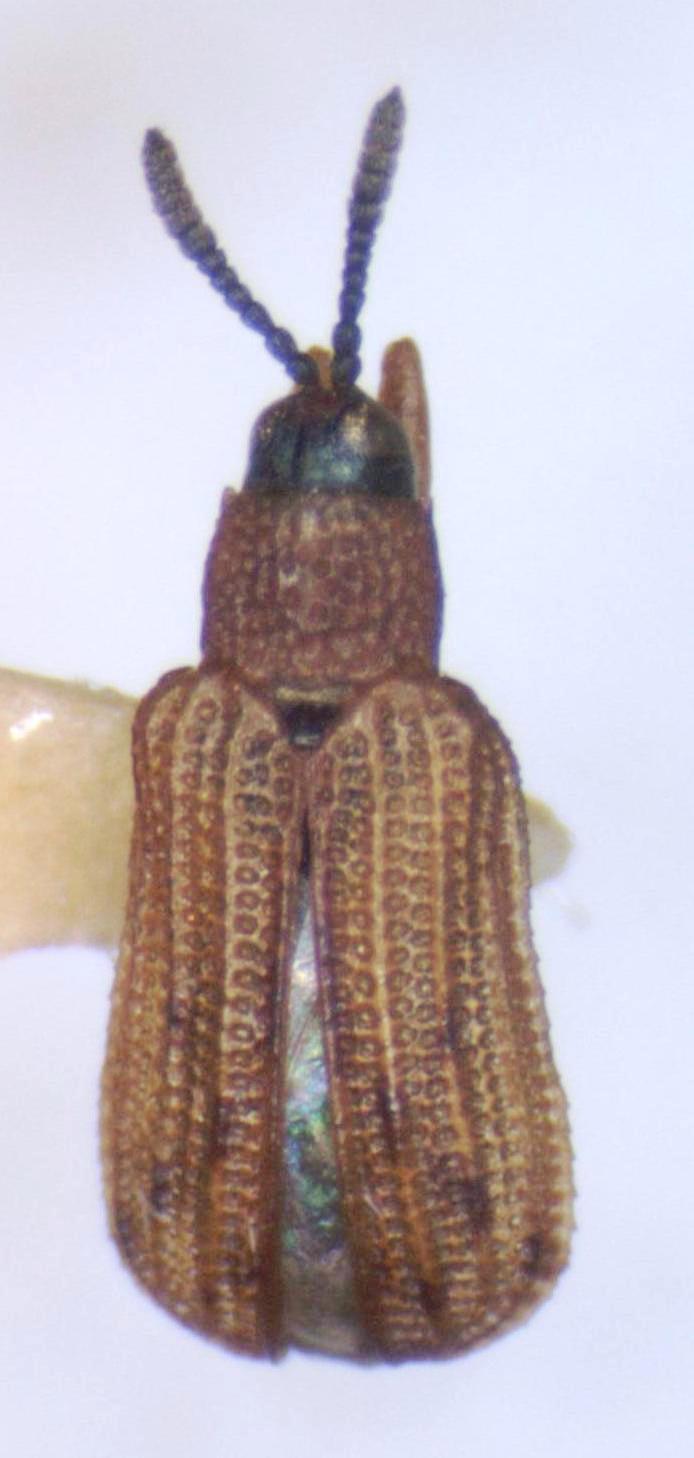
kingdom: Animalia
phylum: Arthropoda
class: Insecta
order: Coleoptera
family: Chrysomelidae
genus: Sumitrosis
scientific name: Sumitrosis pallescens
